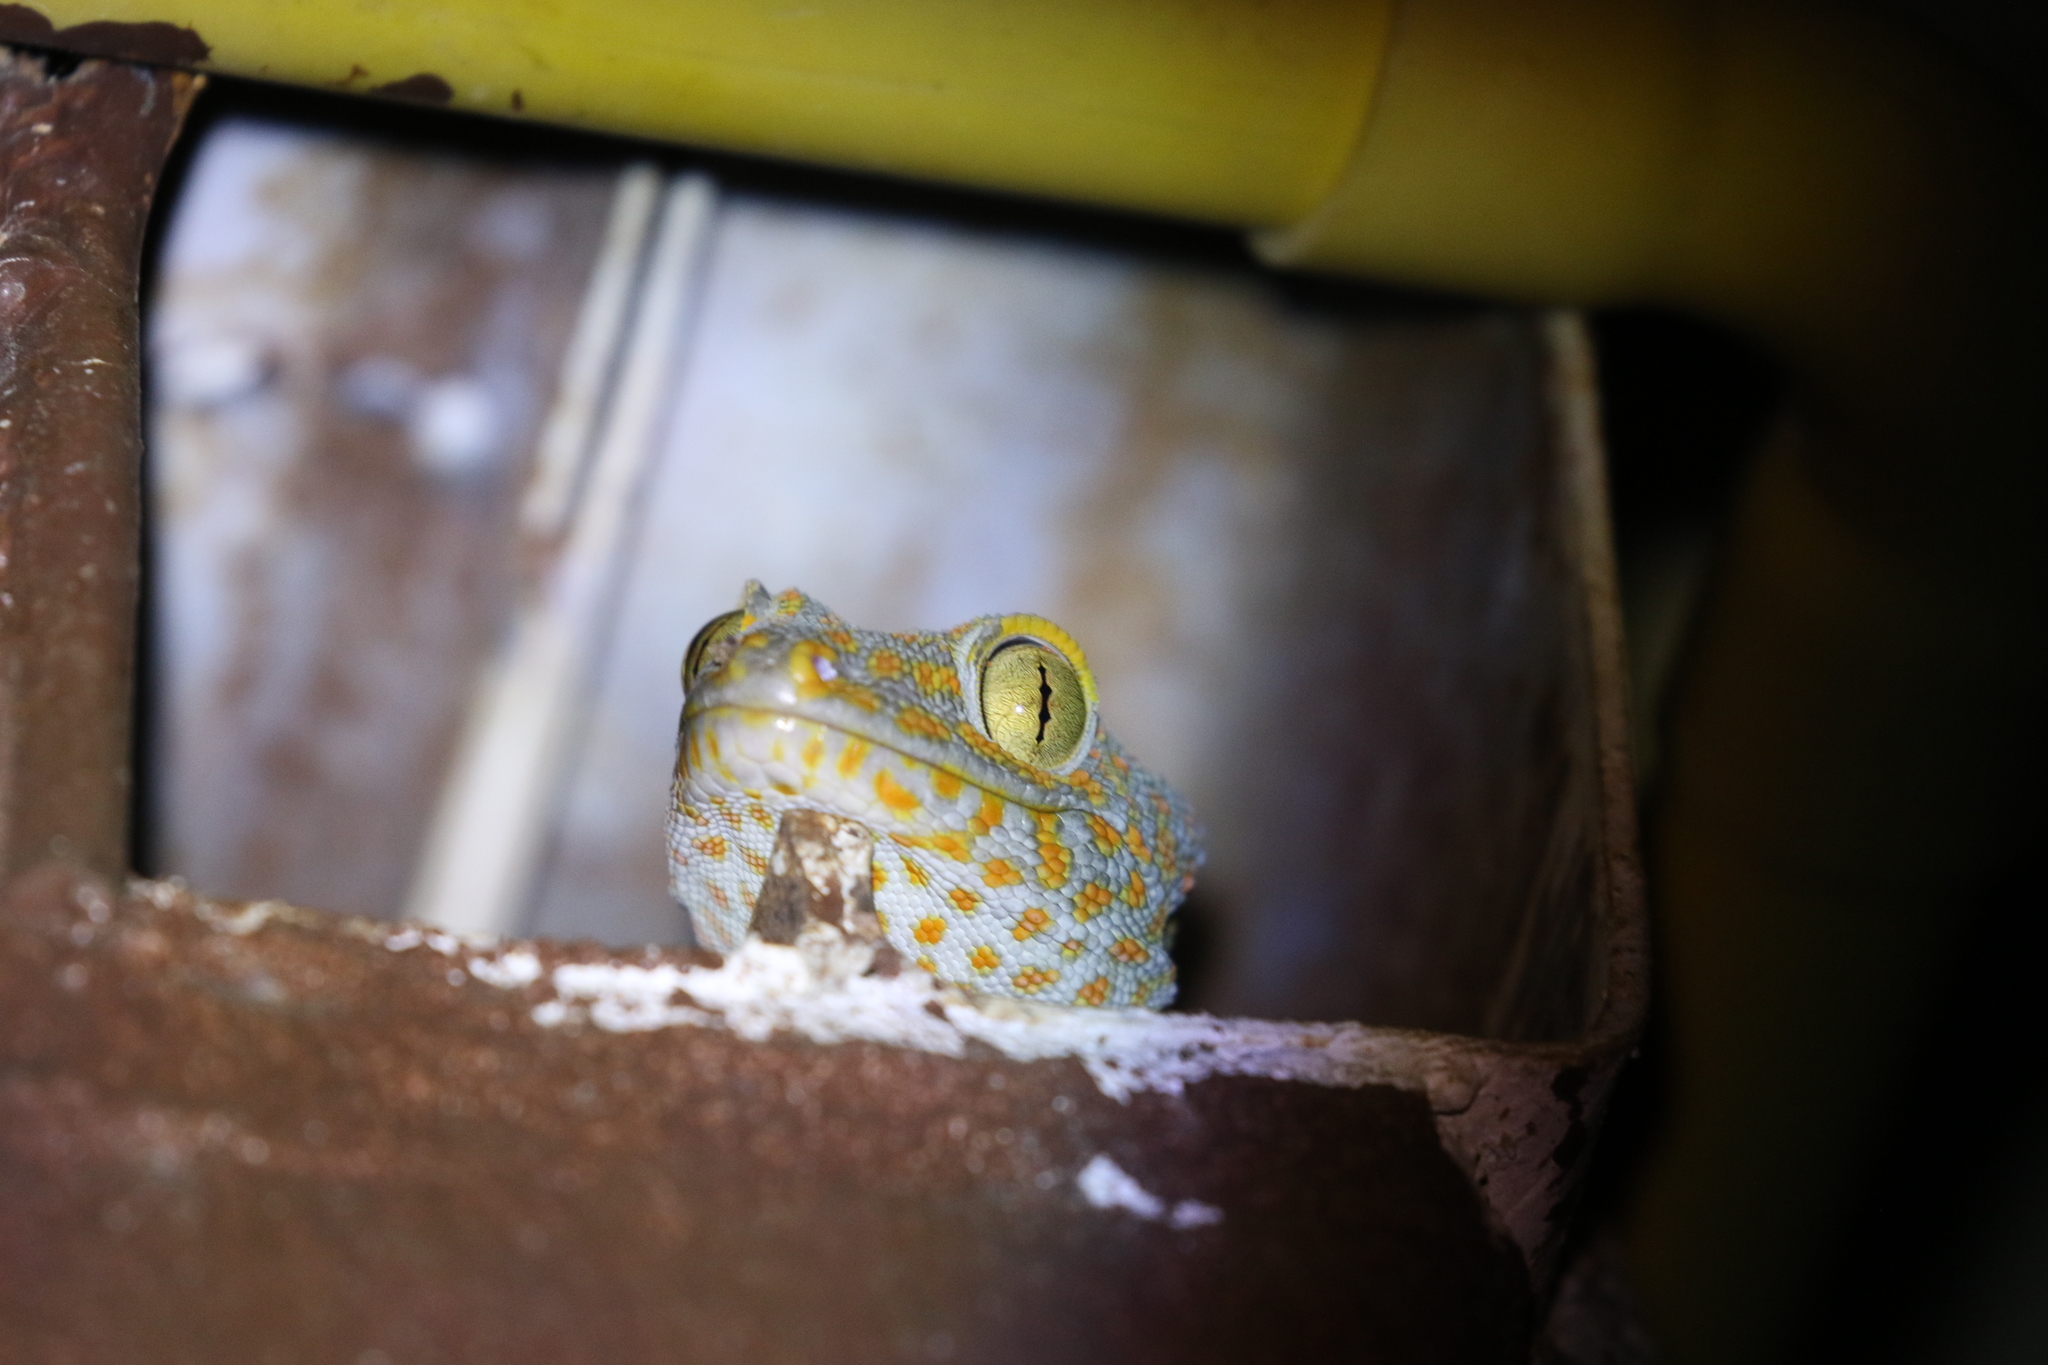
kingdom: Animalia
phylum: Chordata
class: Squamata
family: Gekkonidae
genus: Gekko
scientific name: Gekko gecko
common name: Tokay gecko
